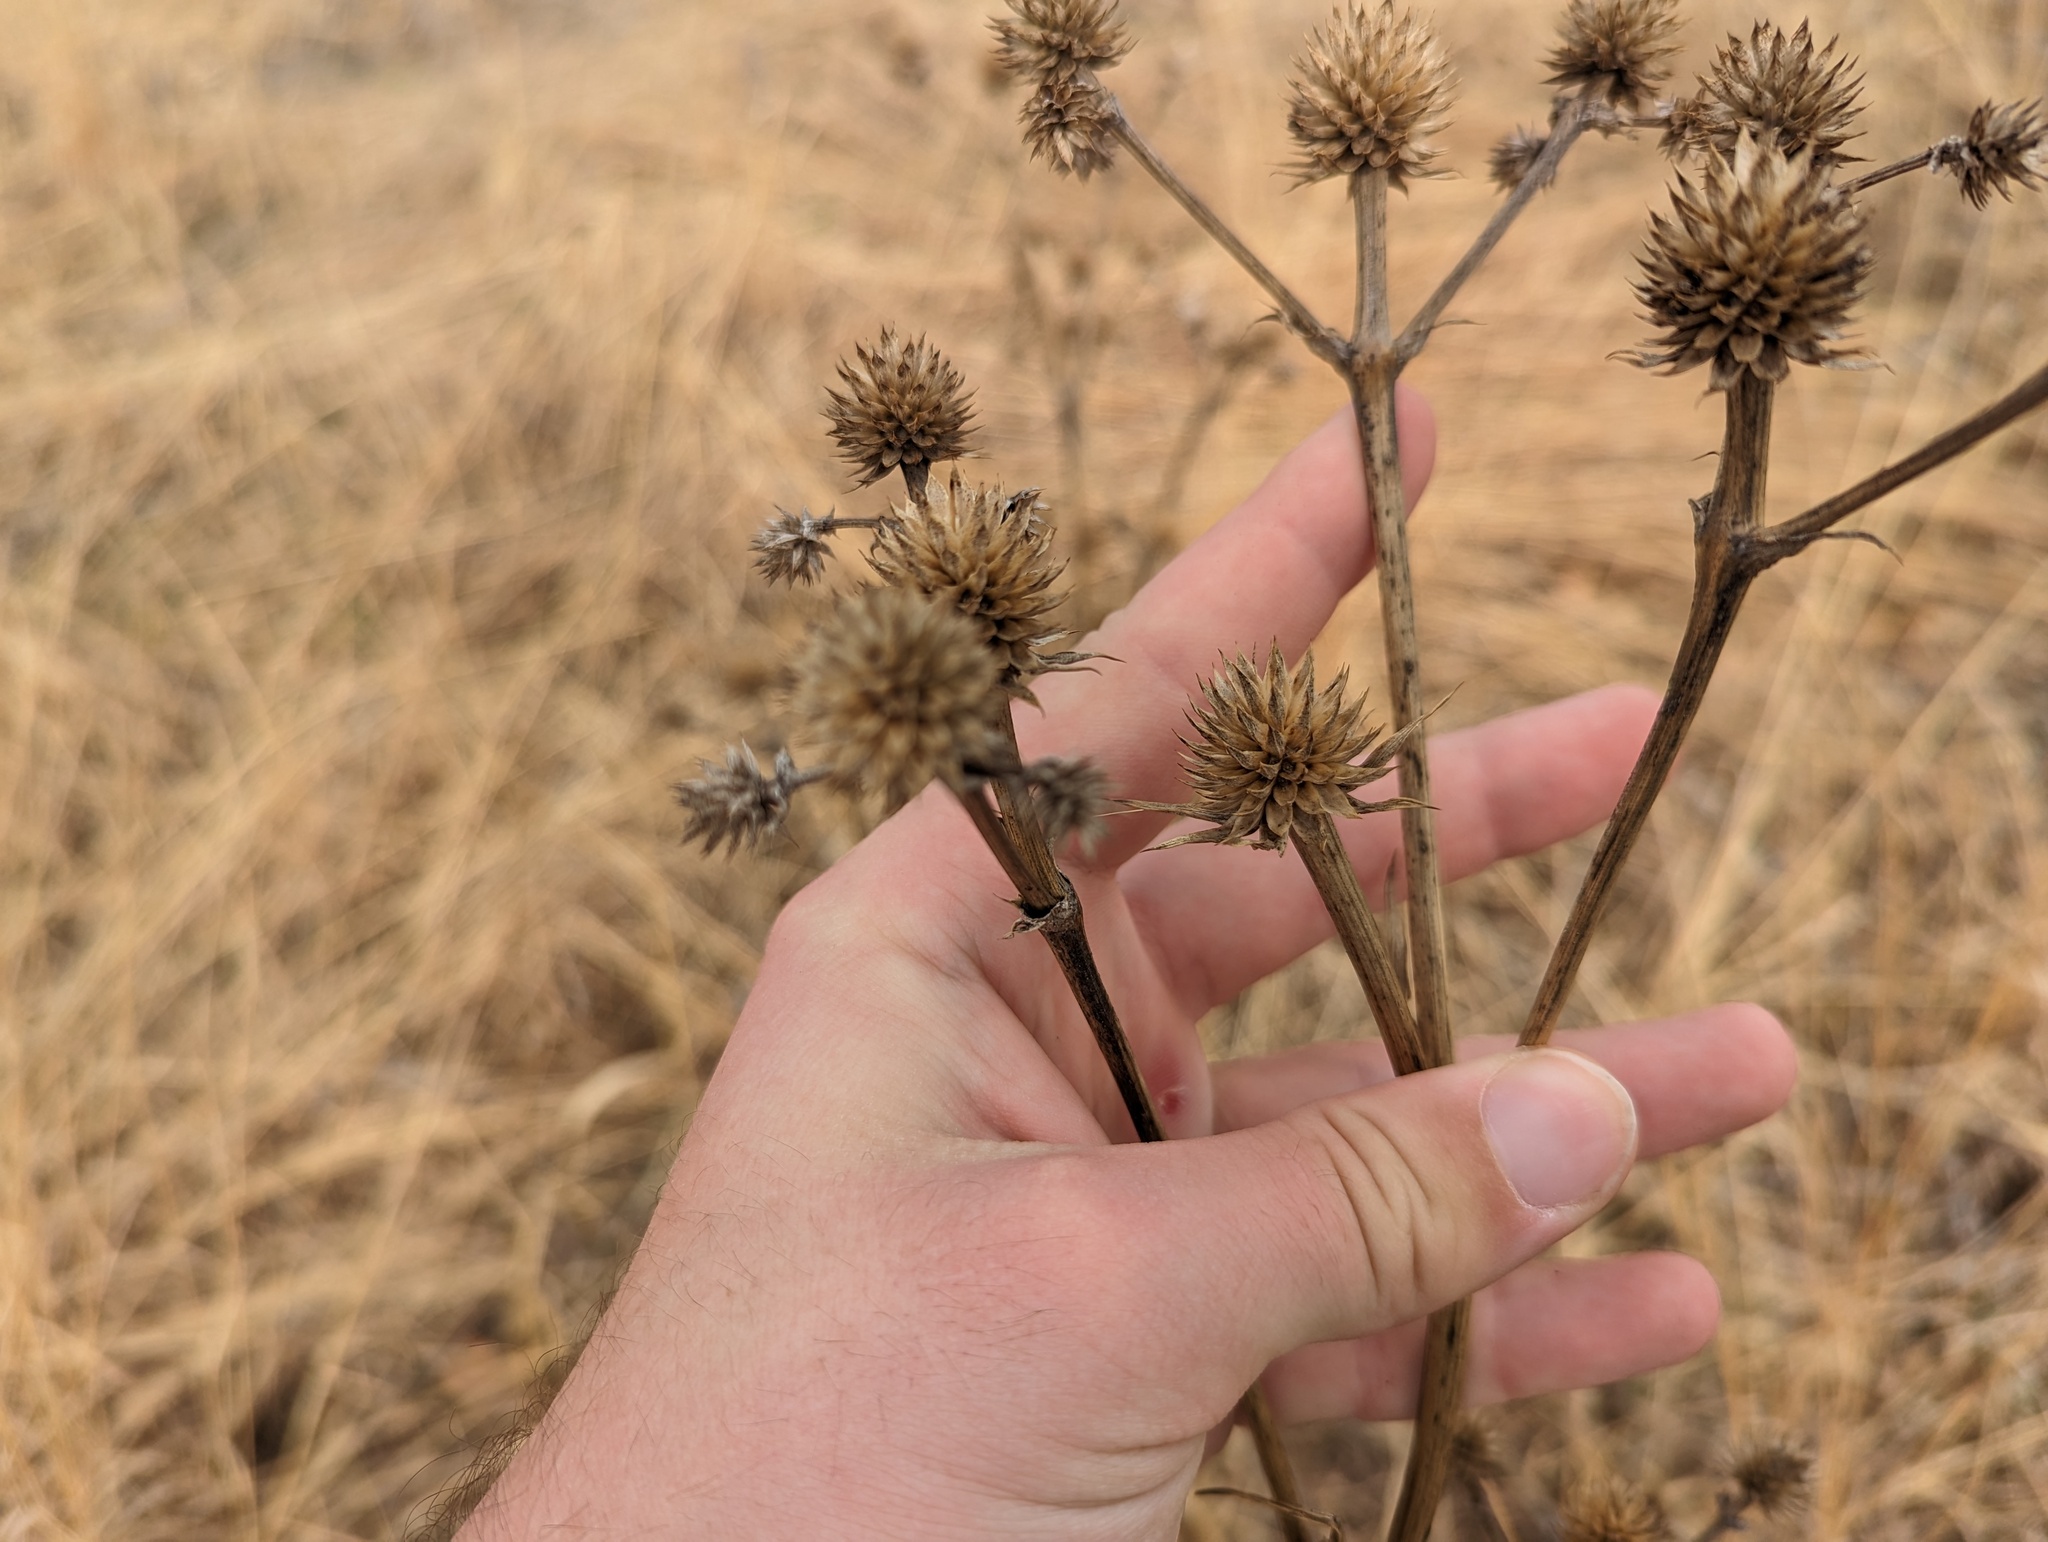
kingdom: Plantae
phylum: Tracheophyta
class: Magnoliopsida
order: Apiales
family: Apiaceae
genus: Eryngium
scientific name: Eryngium yuccifolium
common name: Button eryngo
